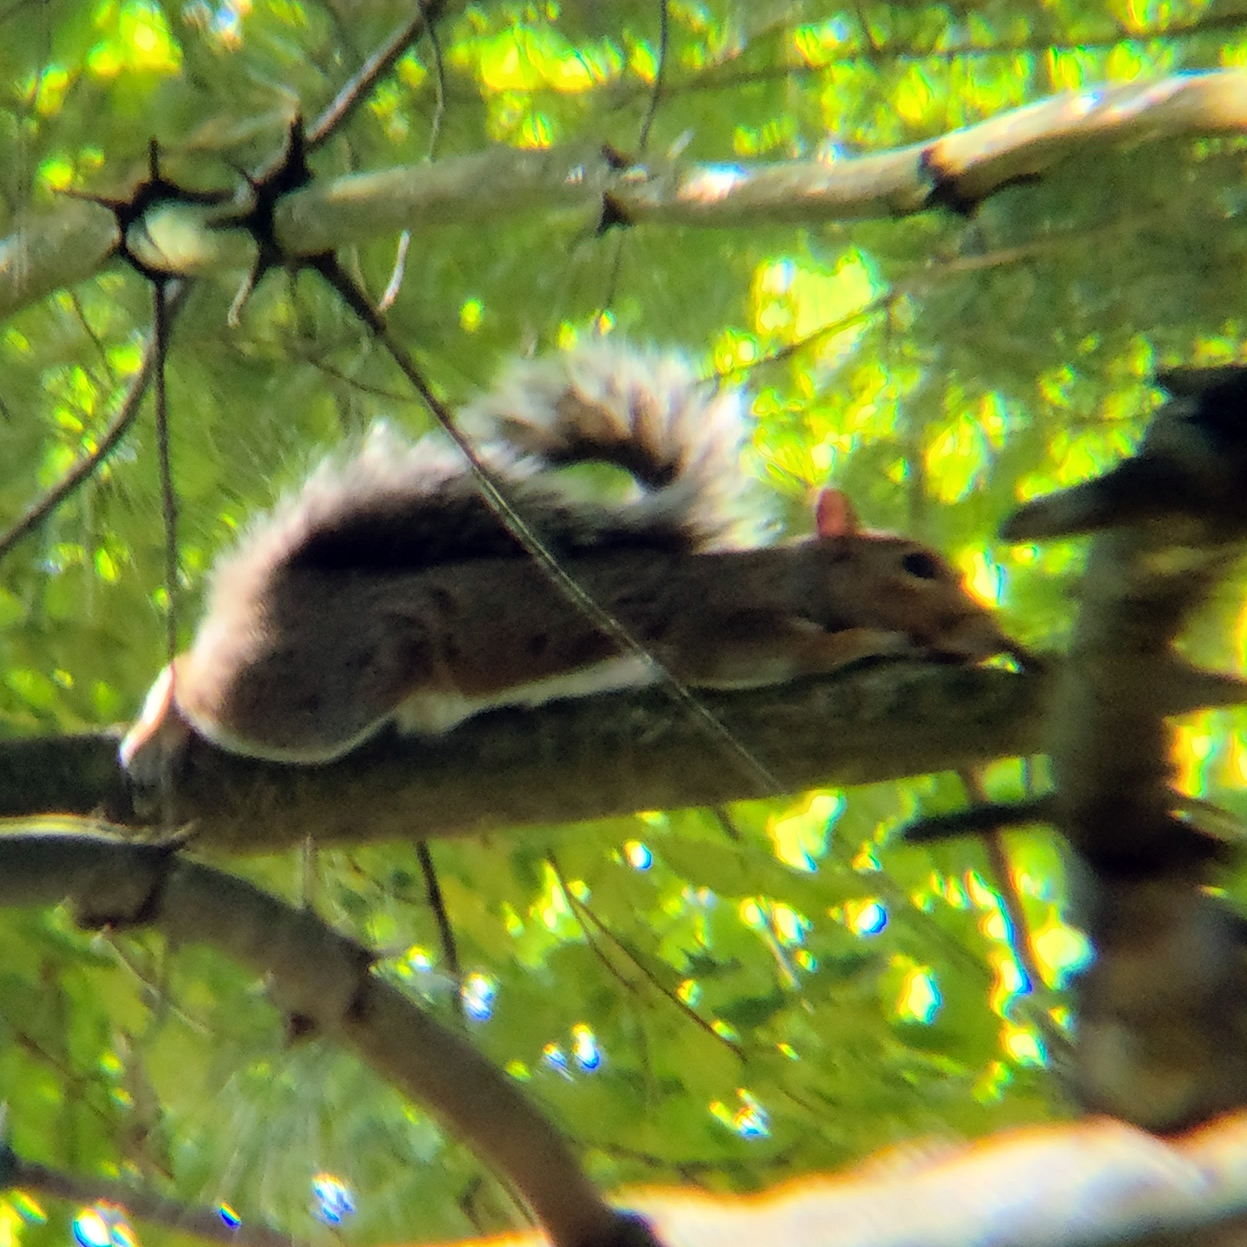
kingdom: Animalia
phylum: Chordata
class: Mammalia
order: Rodentia
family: Sciuridae
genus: Sciurus
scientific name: Sciurus carolinensis
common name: Eastern gray squirrel
